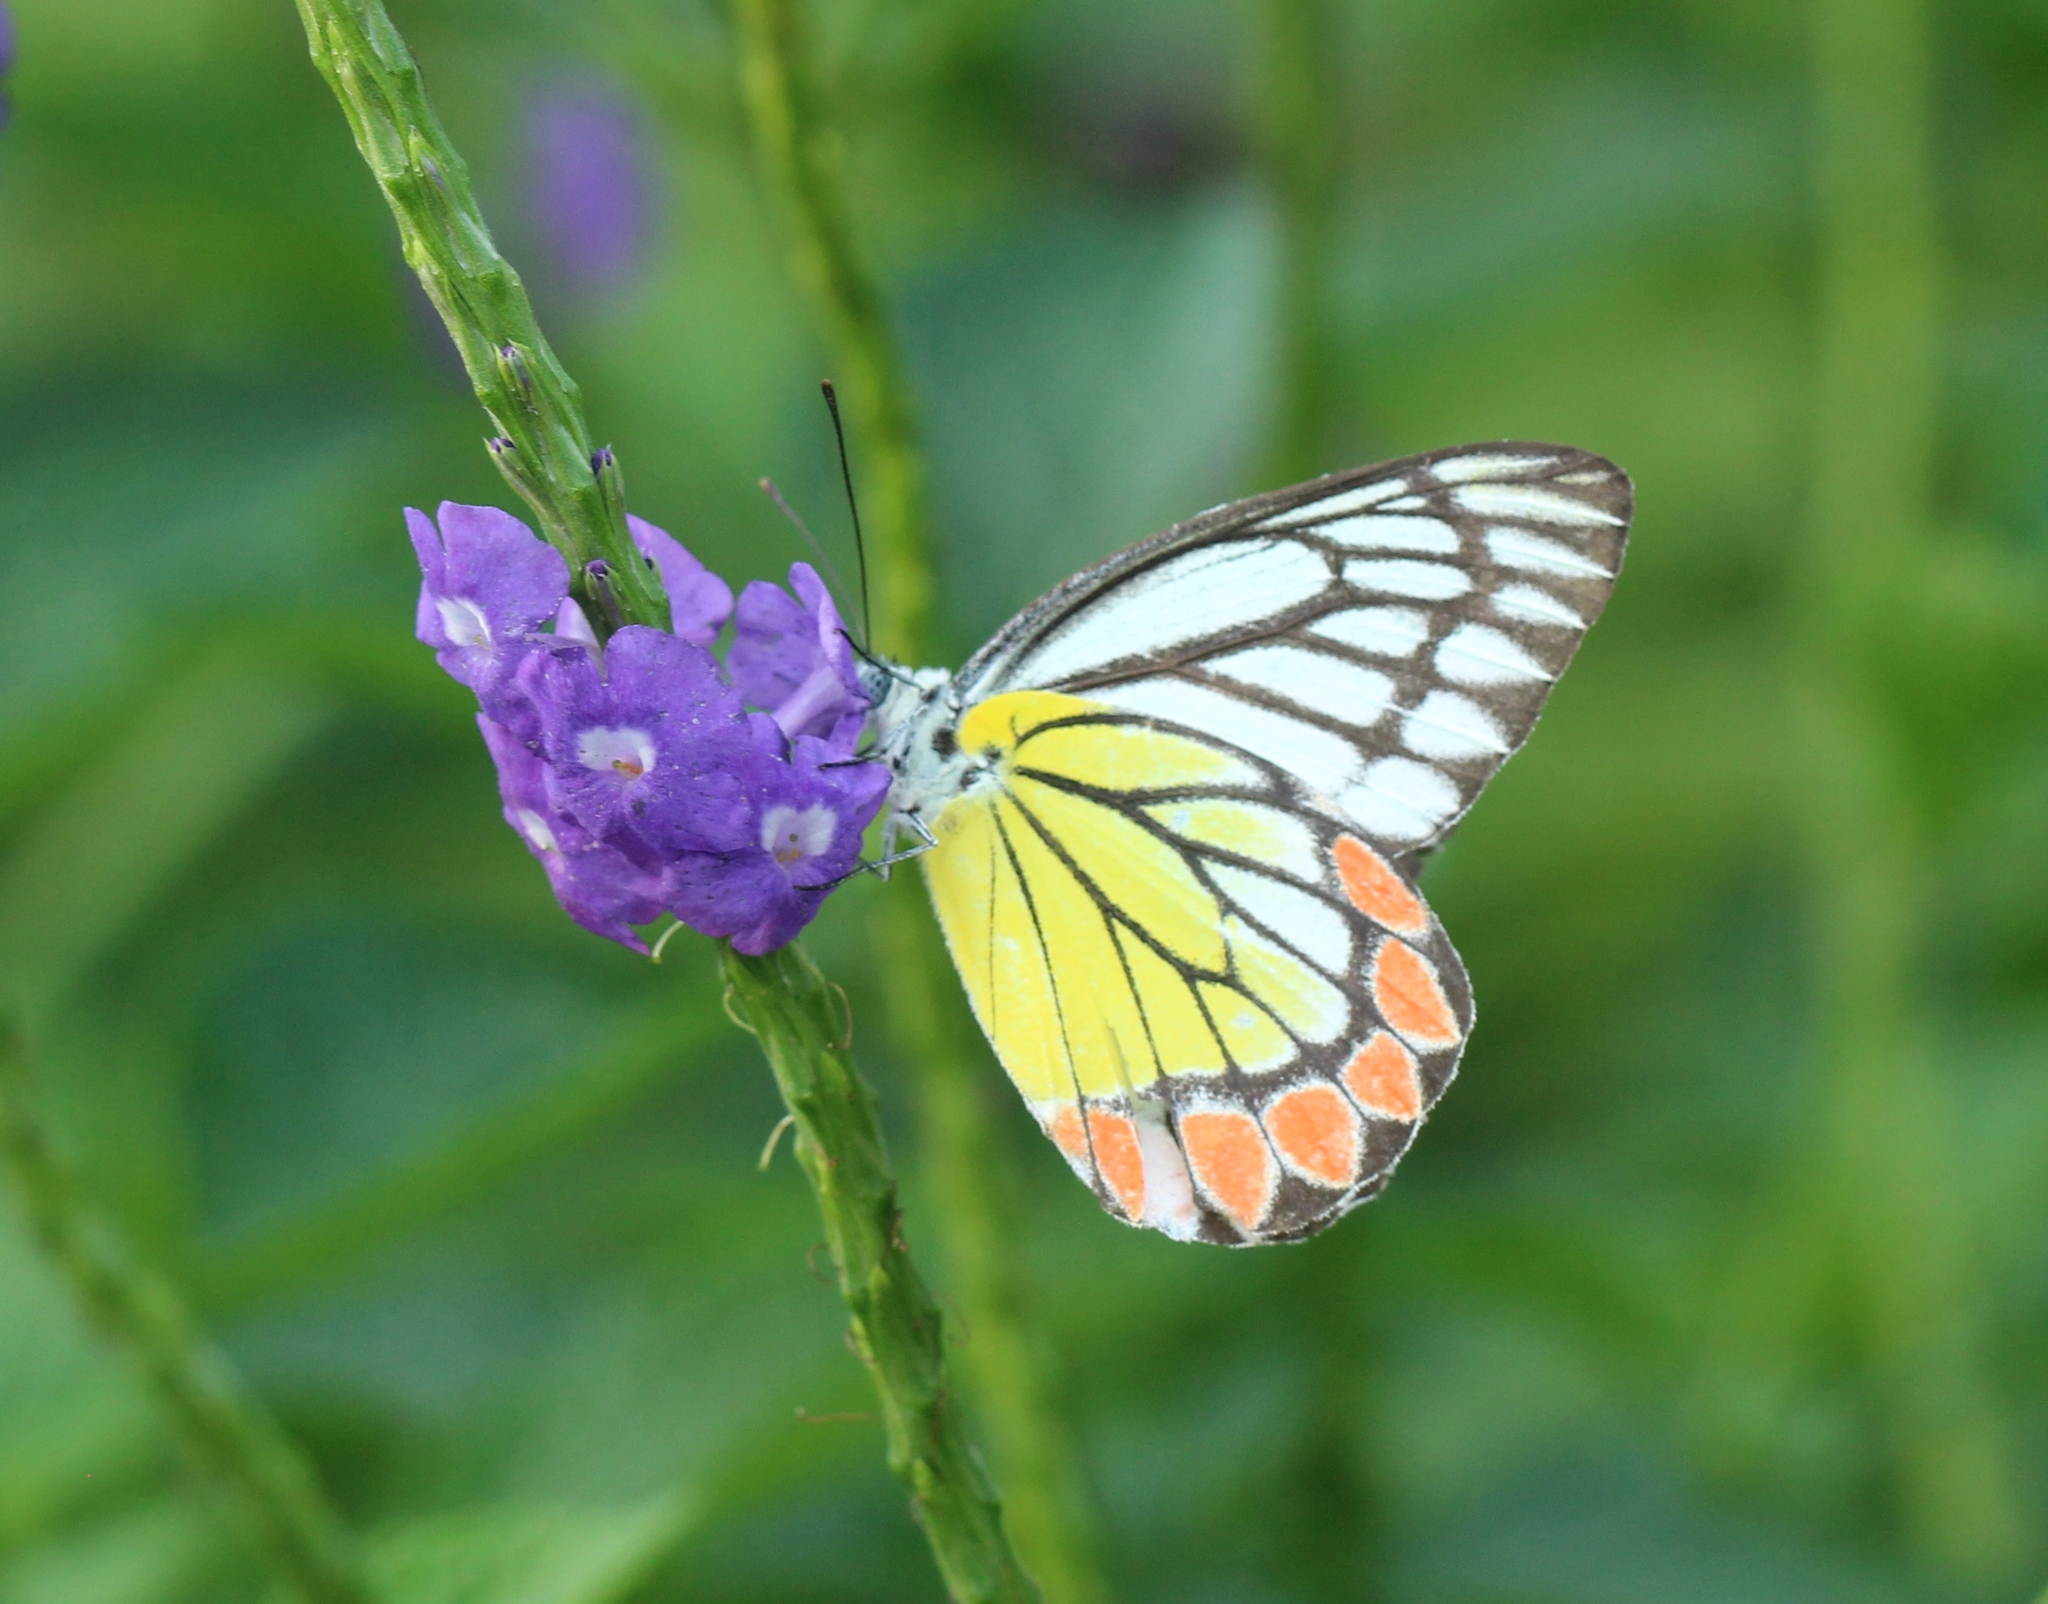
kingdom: Animalia
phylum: Arthropoda
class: Insecta
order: Lepidoptera
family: Pieridae
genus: Delias
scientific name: Delias eucharis
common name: Common jezebel
